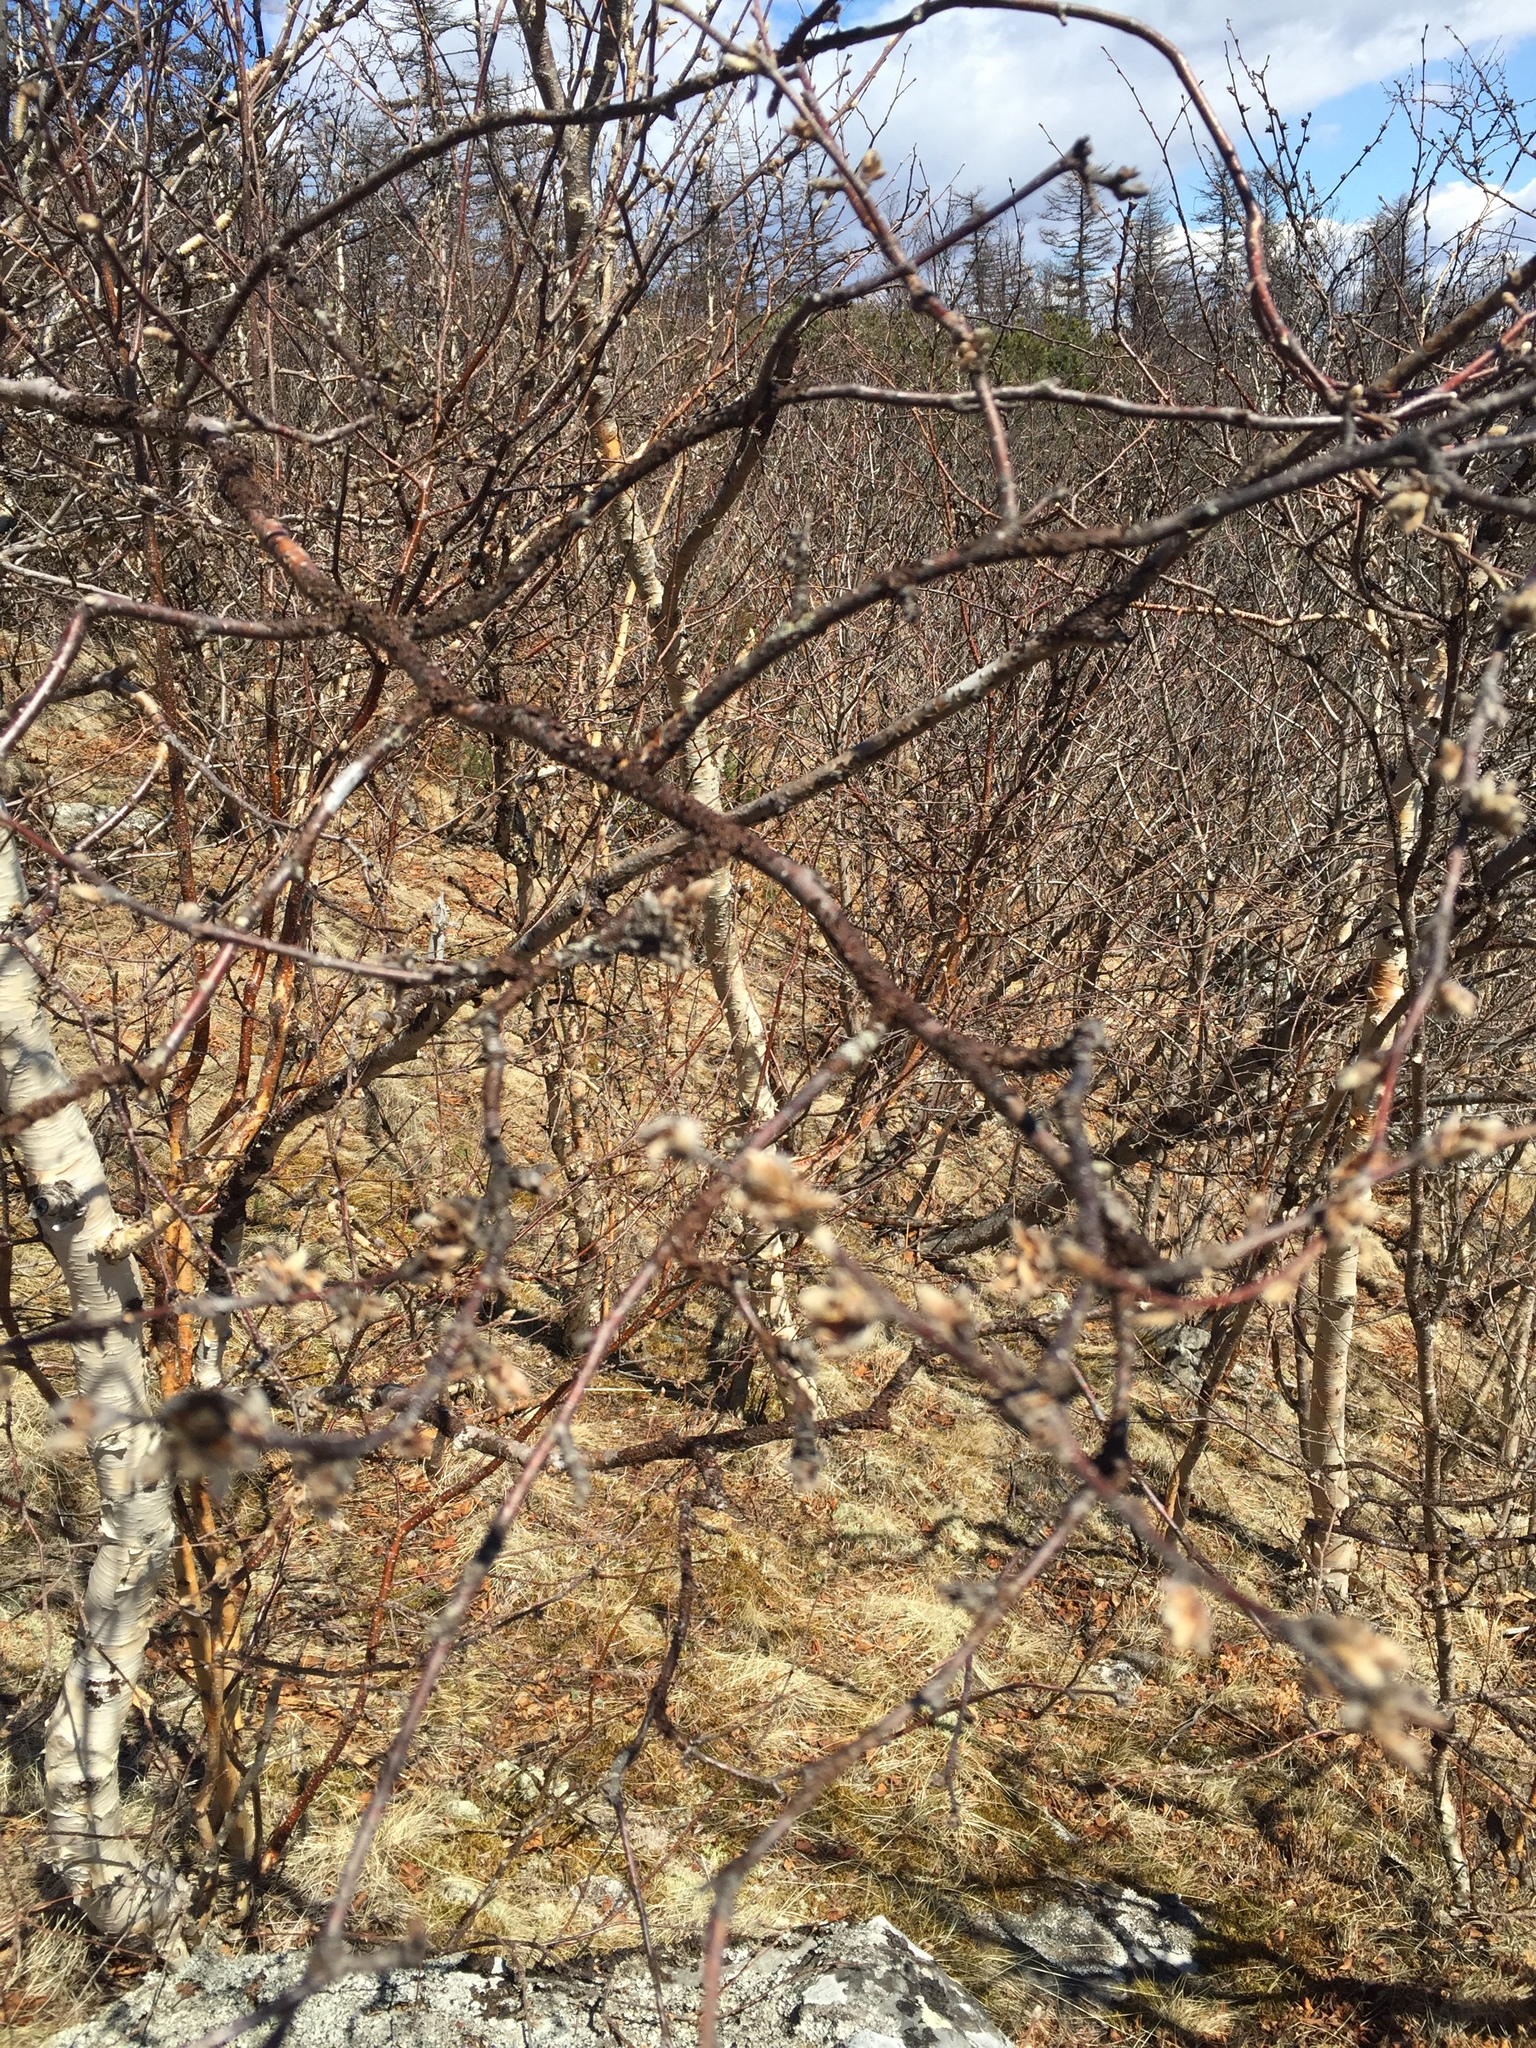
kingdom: Plantae
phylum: Tracheophyta
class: Magnoliopsida
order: Fagales
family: Betulaceae
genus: Betula
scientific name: Betula ermanii
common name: Erman's birch
